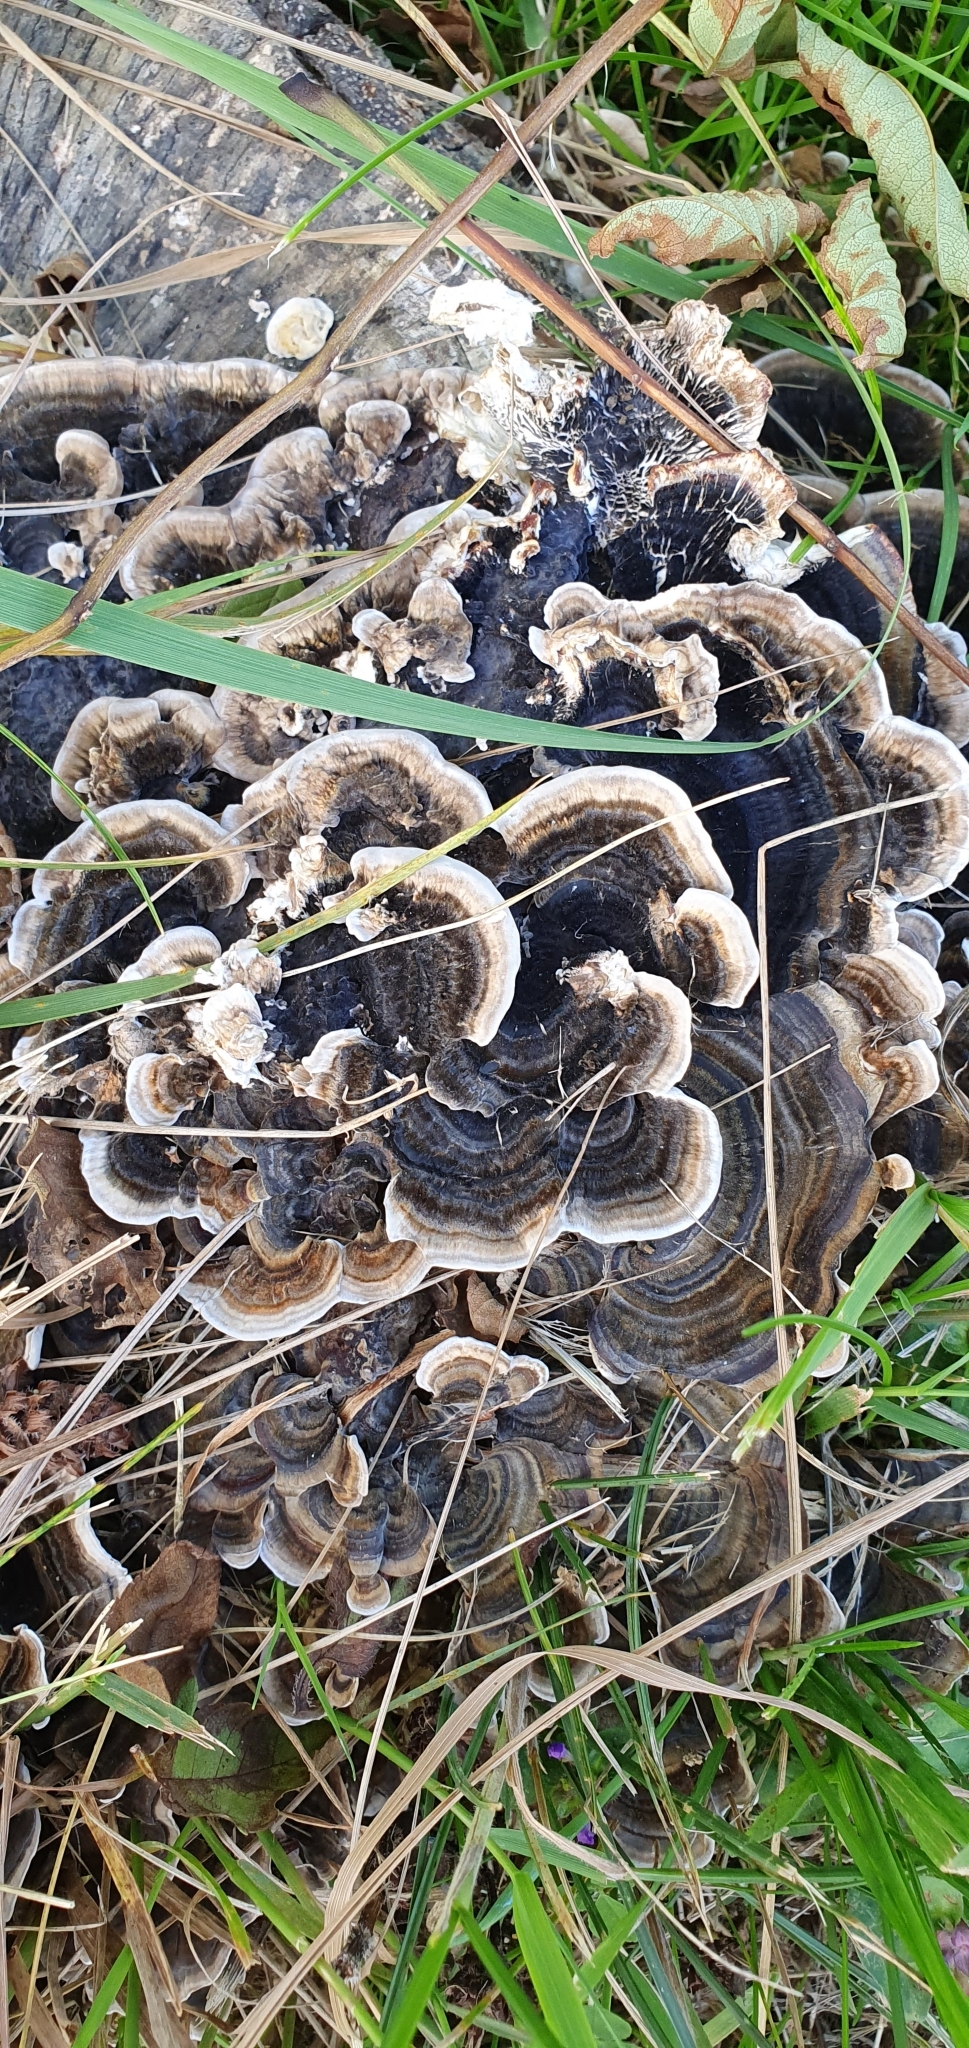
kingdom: Fungi
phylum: Basidiomycota
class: Agaricomycetes
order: Polyporales
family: Polyporaceae
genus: Trametes
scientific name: Trametes versicolor
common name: Turkeytail
